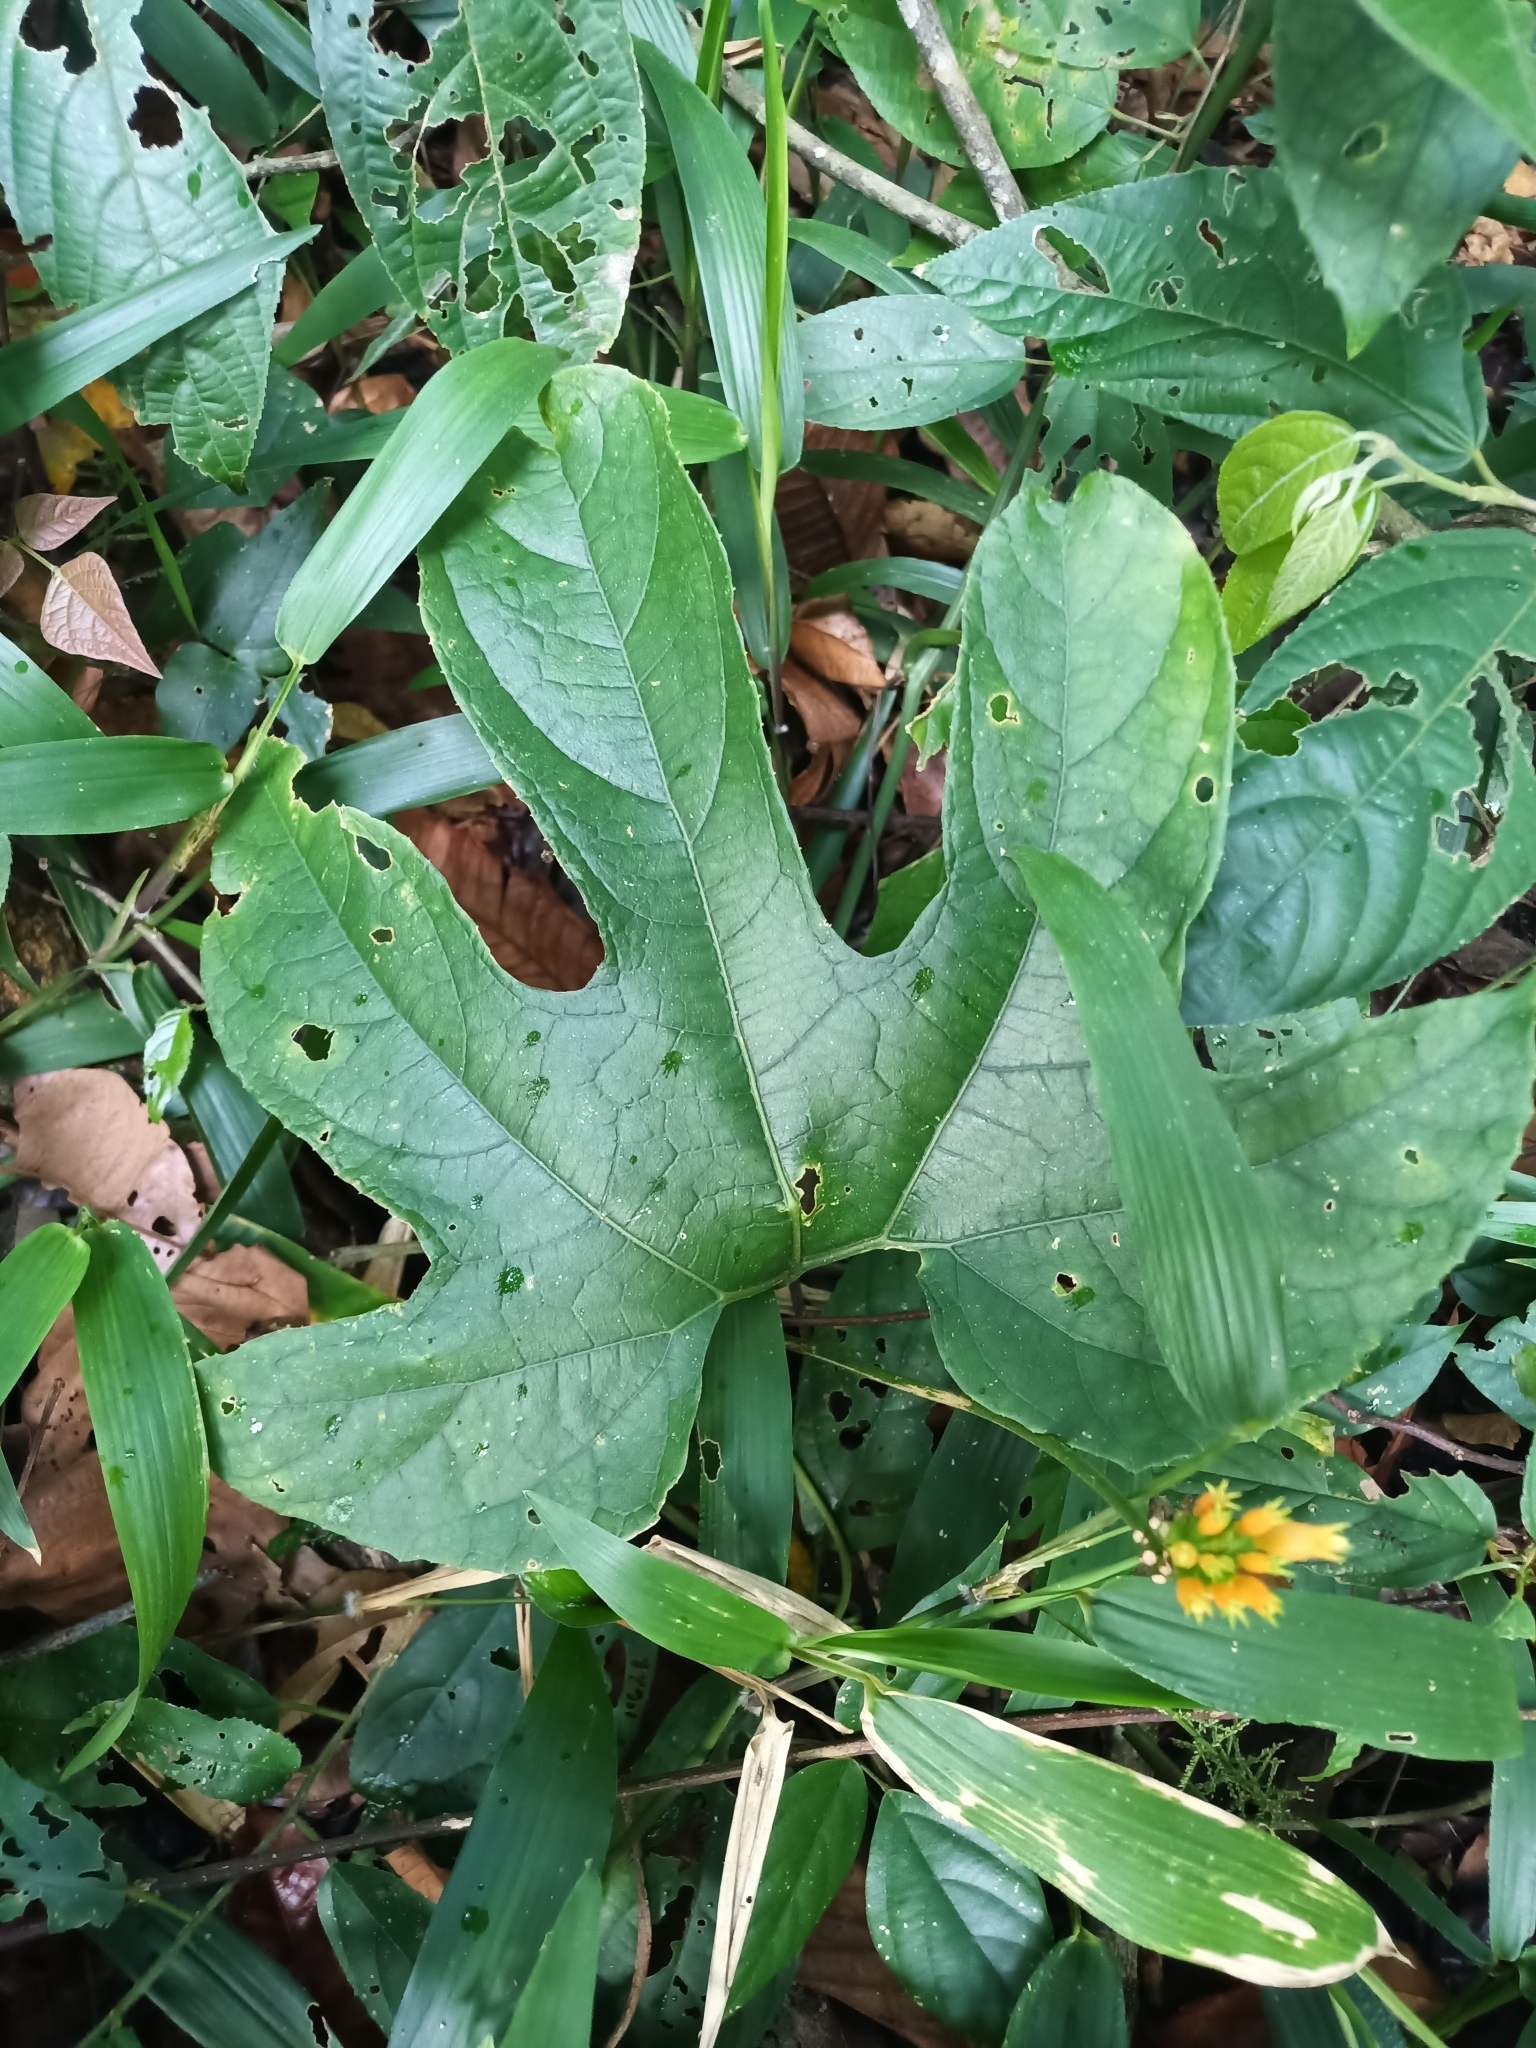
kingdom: Plantae
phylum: Tracheophyta
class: Magnoliopsida
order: Cucurbitales
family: Cucurbitaceae
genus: Gurania
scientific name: Gurania lobata
